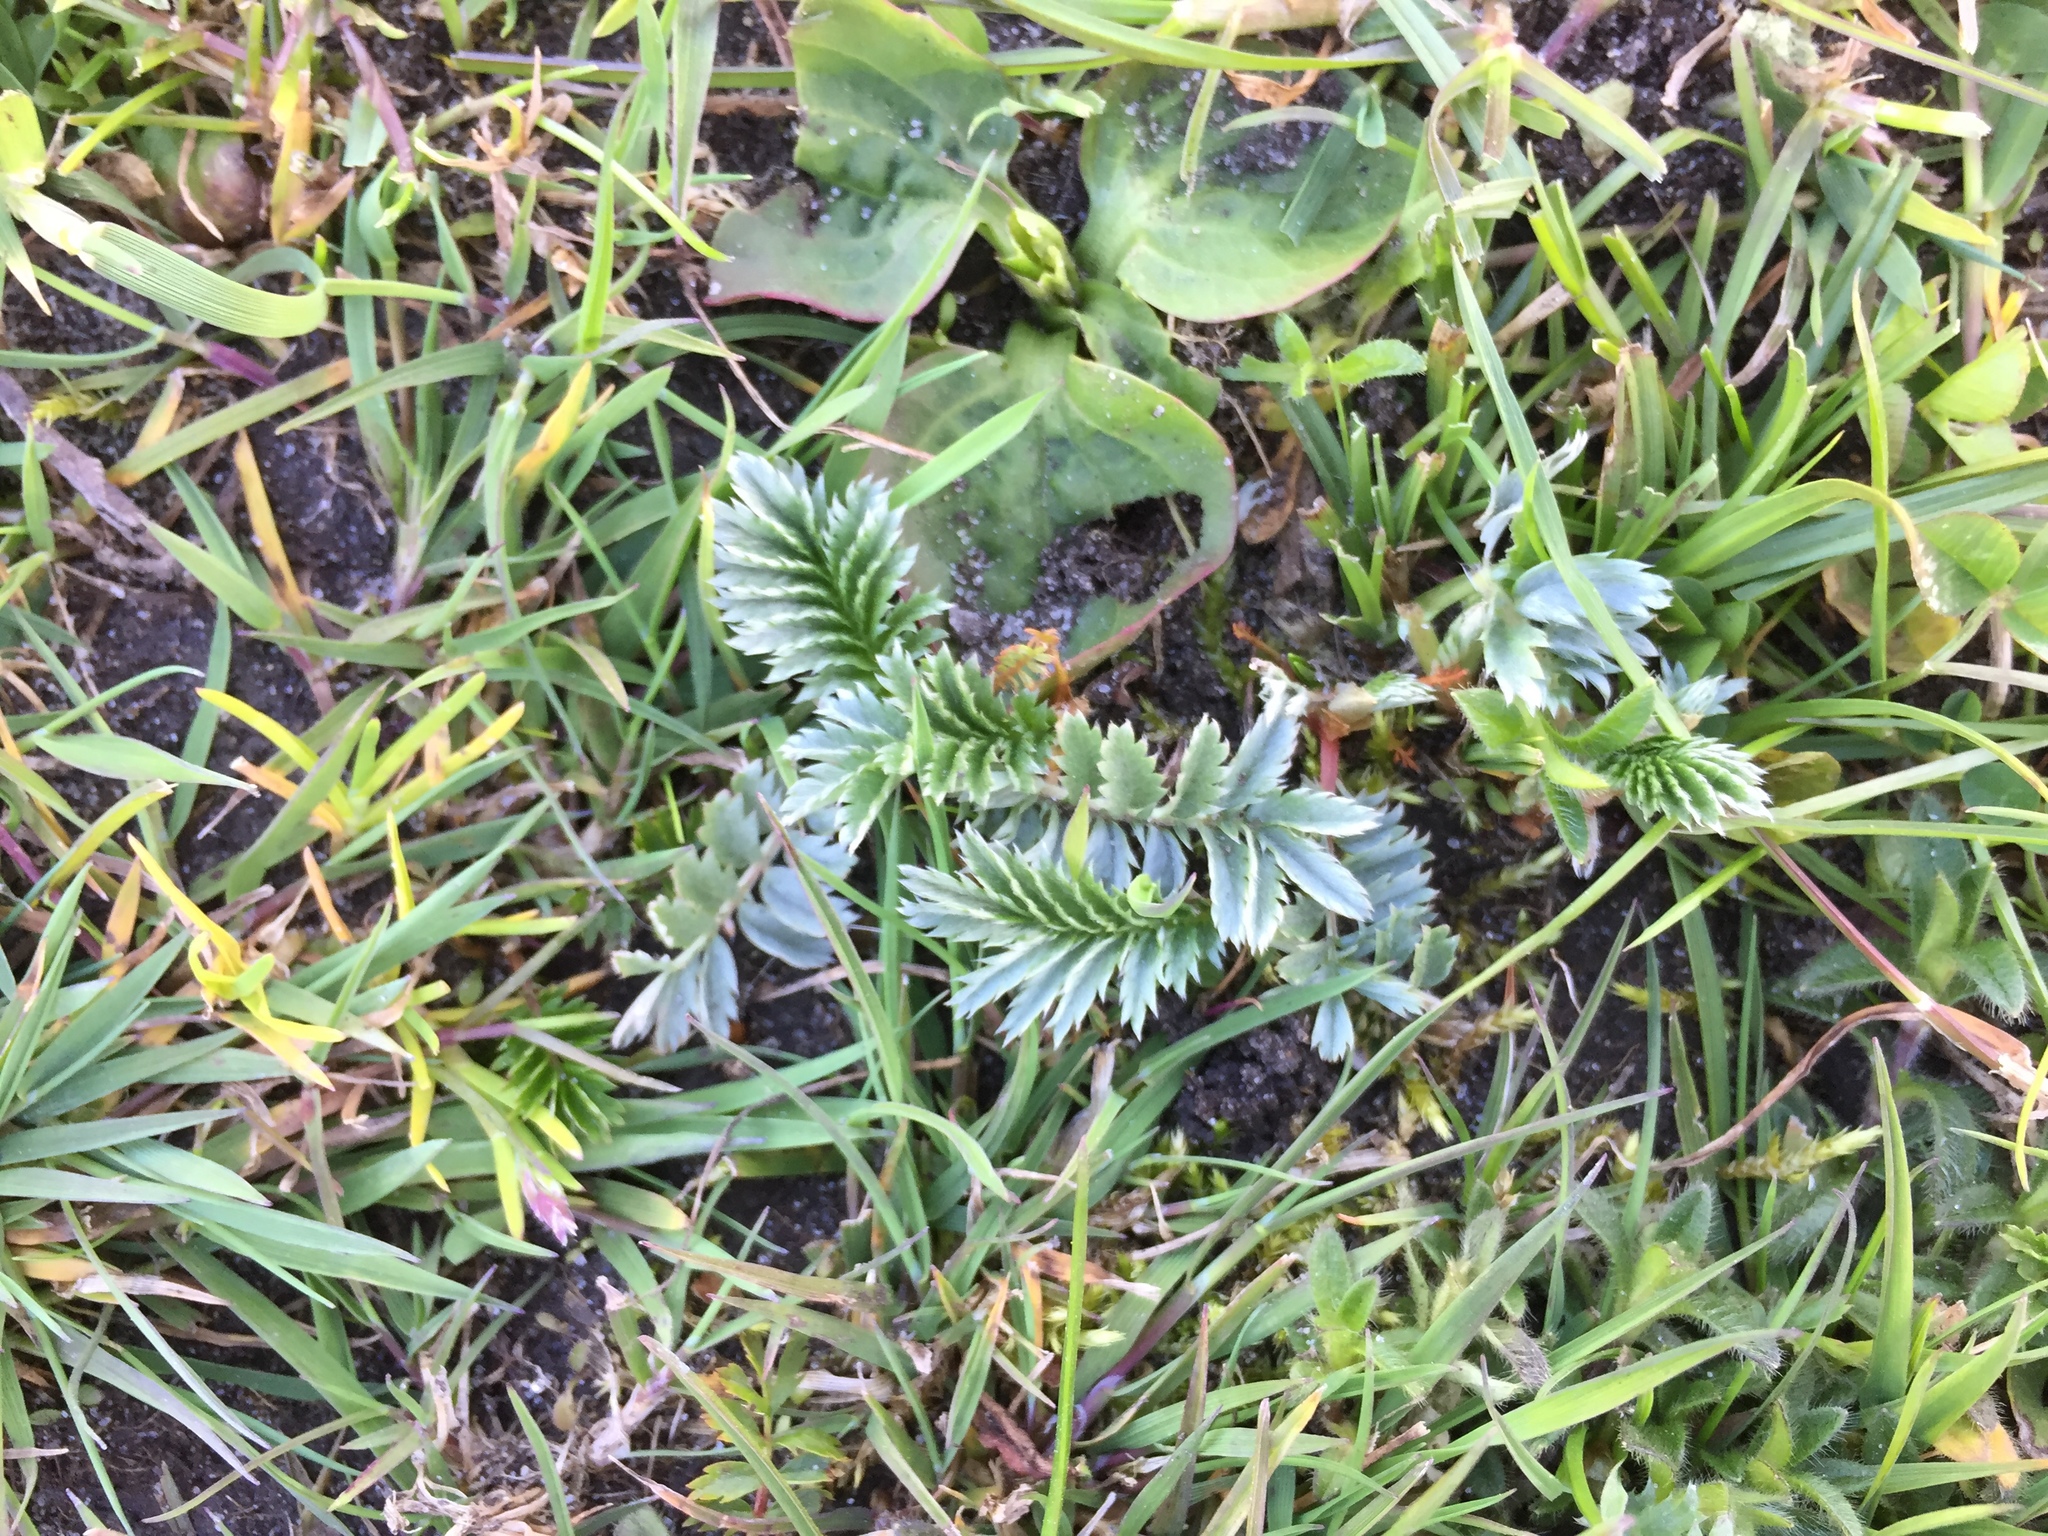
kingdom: Plantae
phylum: Tracheophyta
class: Magnoliopsida
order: Rosales
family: Rosaceae
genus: Argentina
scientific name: Argentina anserina
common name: Common silverweed
